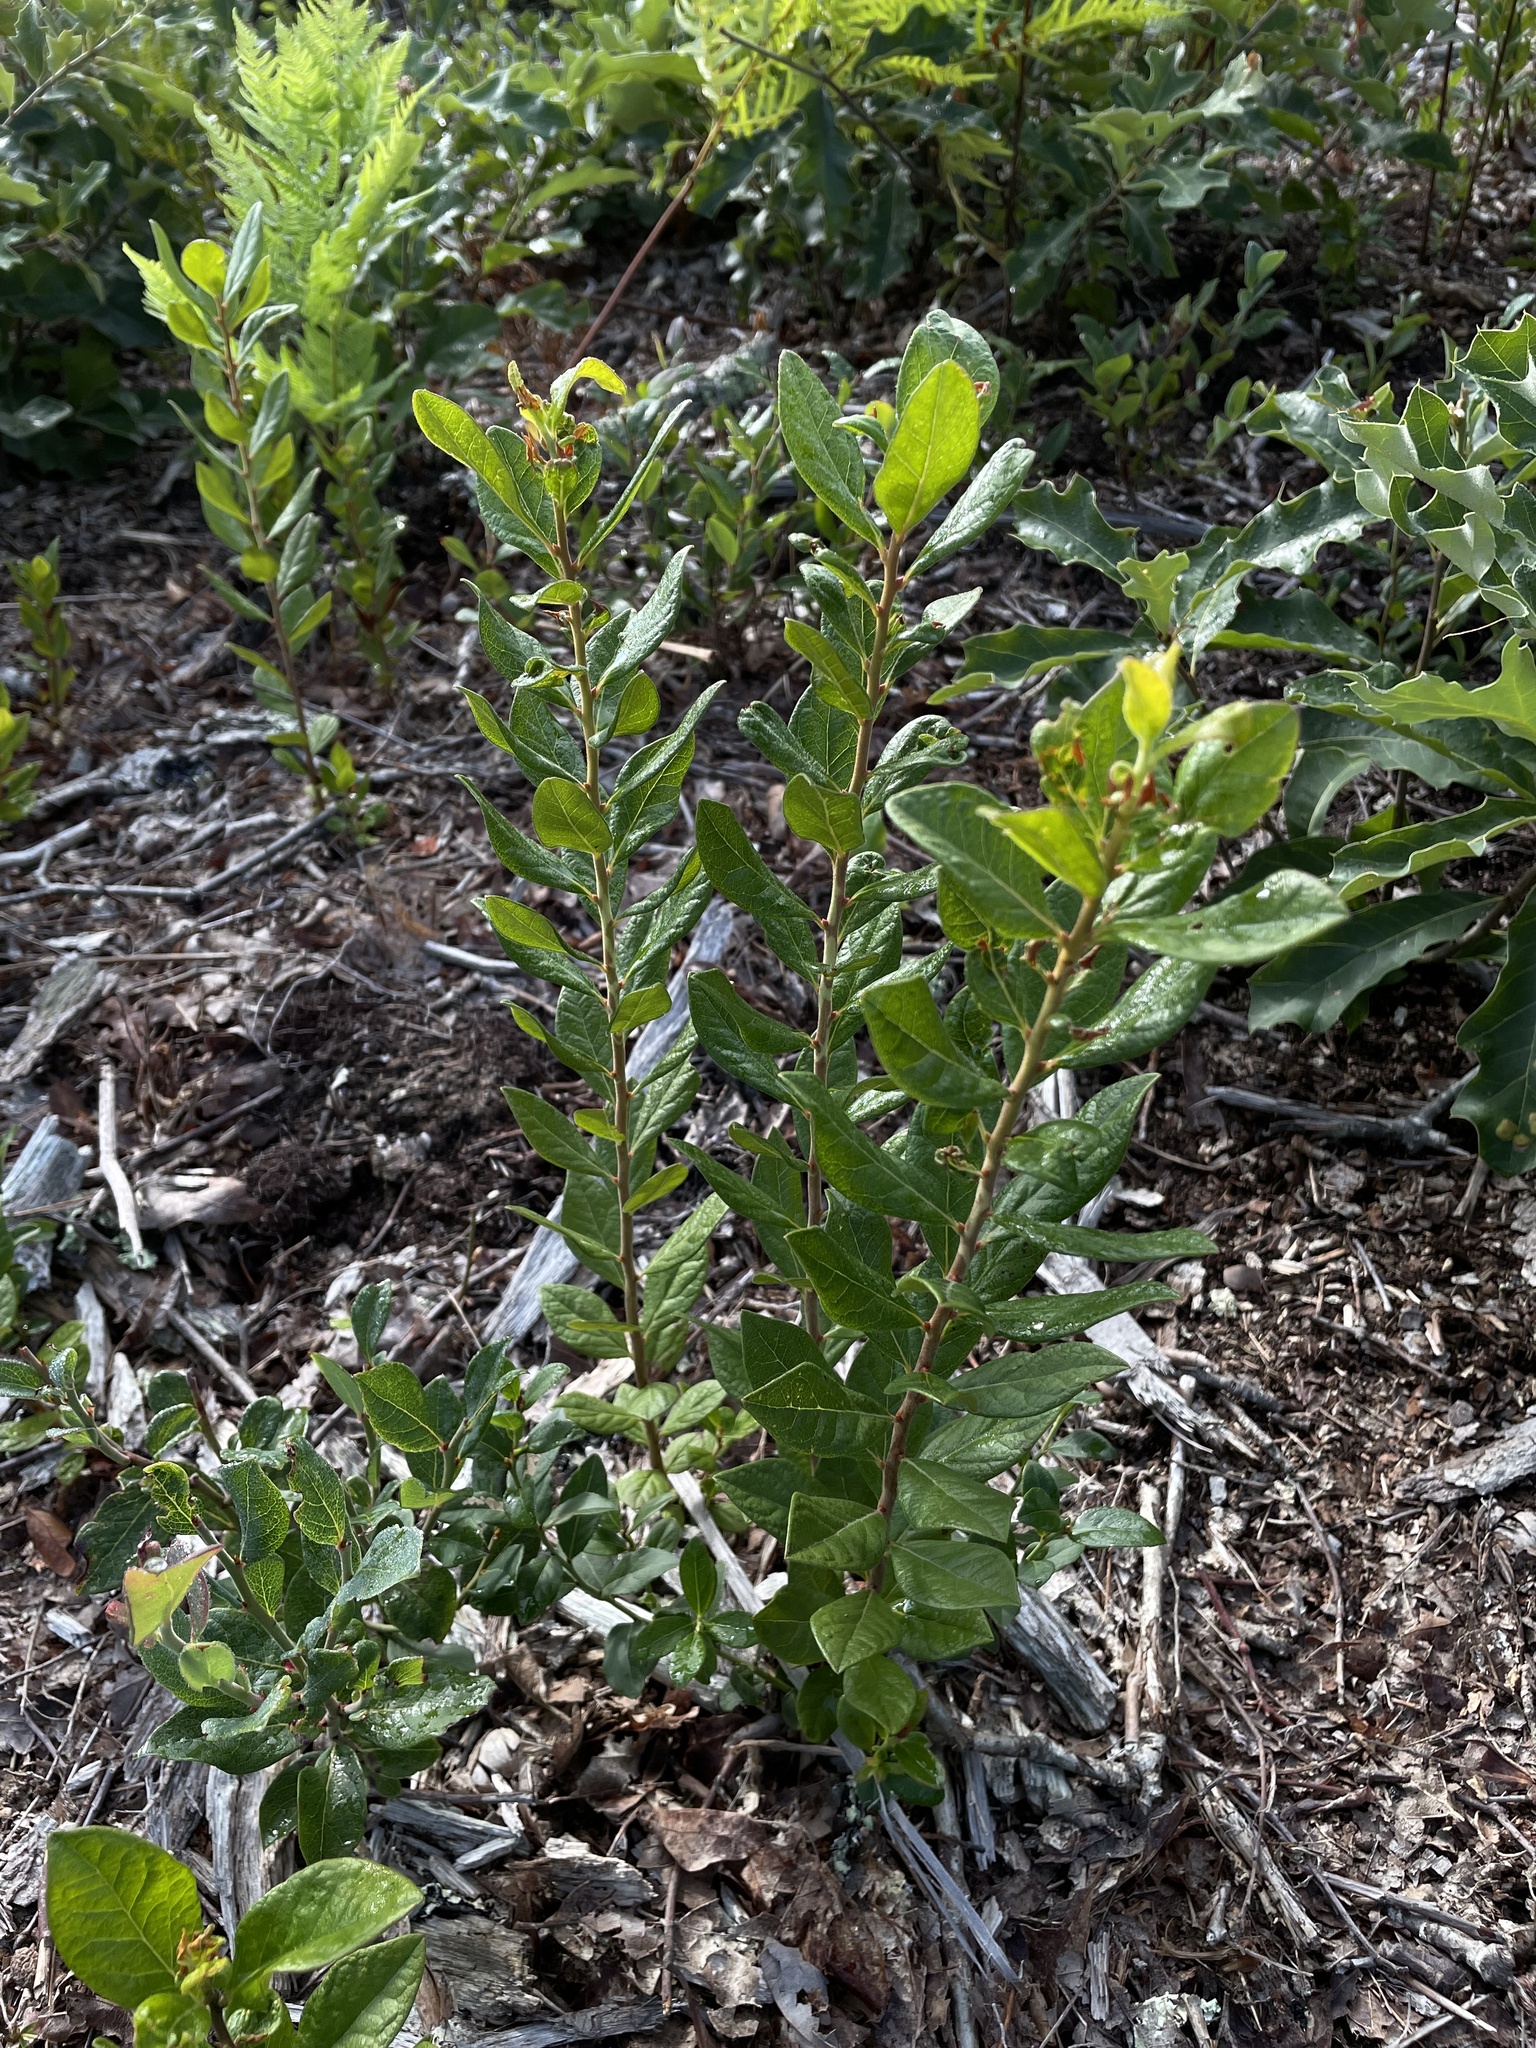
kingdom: Plantae
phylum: Tracheophyta
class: Magnoliopsida
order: Ericales
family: Ericaceae
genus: Gaylussacia
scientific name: Gaylussacia baccata
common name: Black huckleberry
